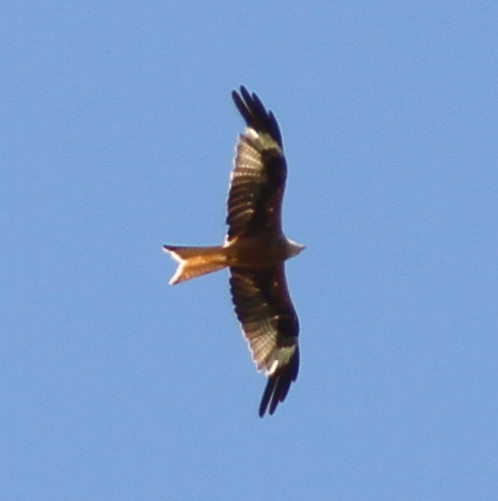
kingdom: Animalia
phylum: Chordata
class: Aves
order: Accipitriformes
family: Accipitridae
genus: Milvus
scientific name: Milvus milvus
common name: Red kite
